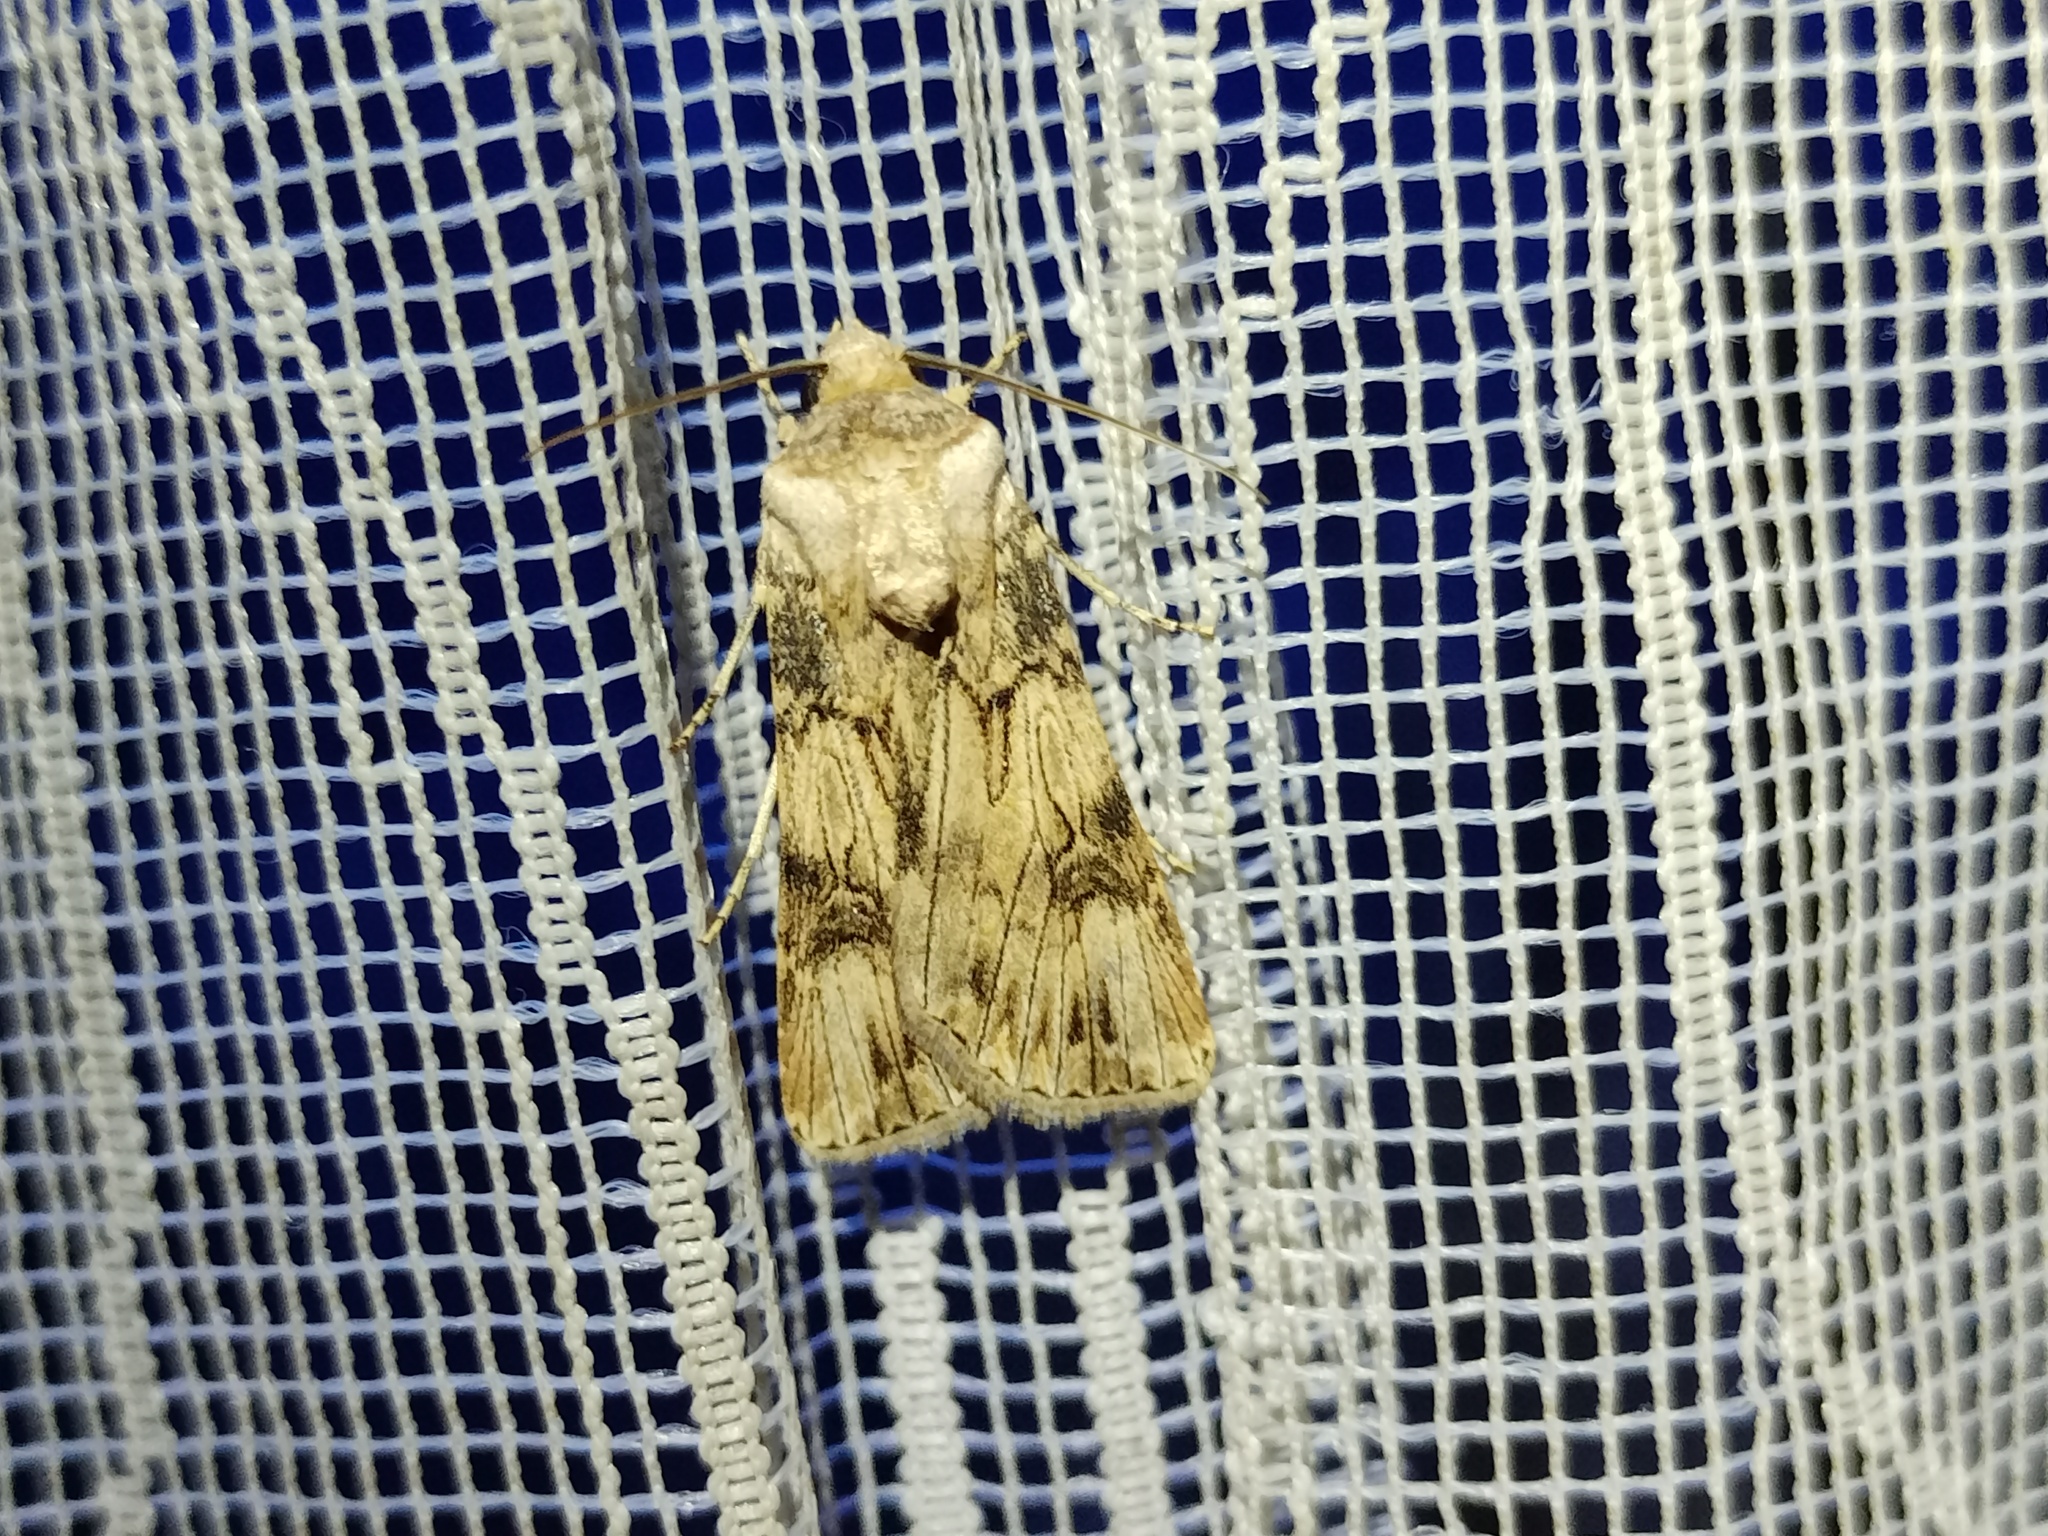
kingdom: Animalia
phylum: Arthropoda
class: Insecta
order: Lepidoptera
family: Noctuidae
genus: Agrotis
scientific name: Agrotis herzogi
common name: Spalding's dart
